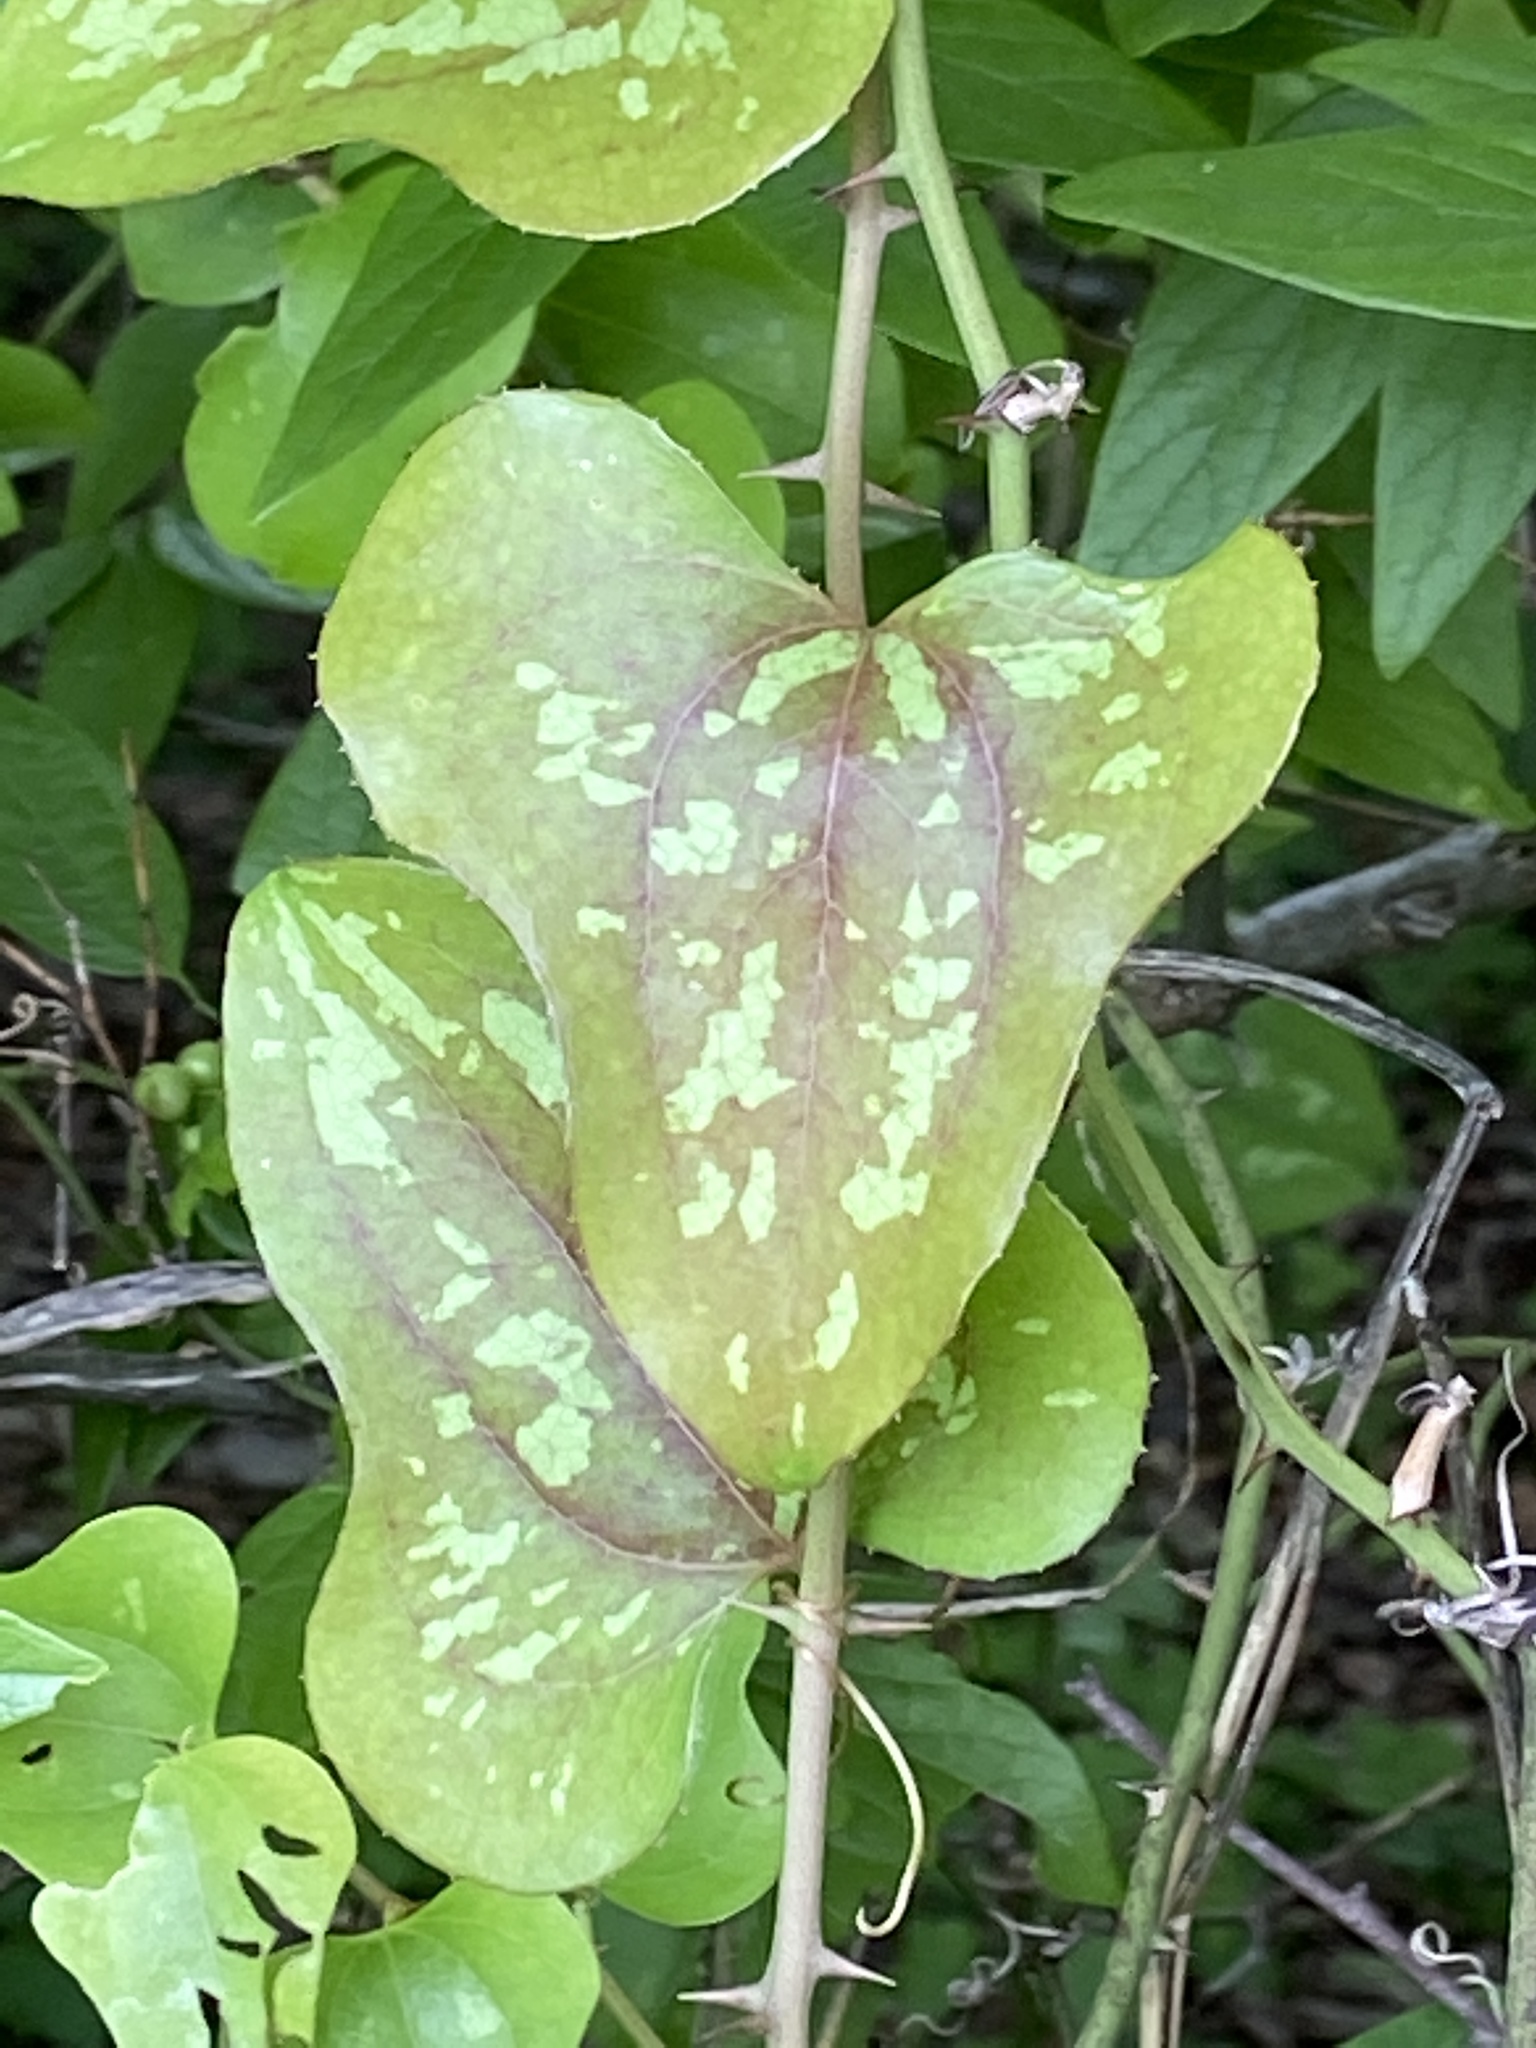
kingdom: Plantae
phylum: Tracheophyta
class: Liliopsida
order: Liliales
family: Smilacaceae
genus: Smilax
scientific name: Smilax bona-nox
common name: Catbrier
